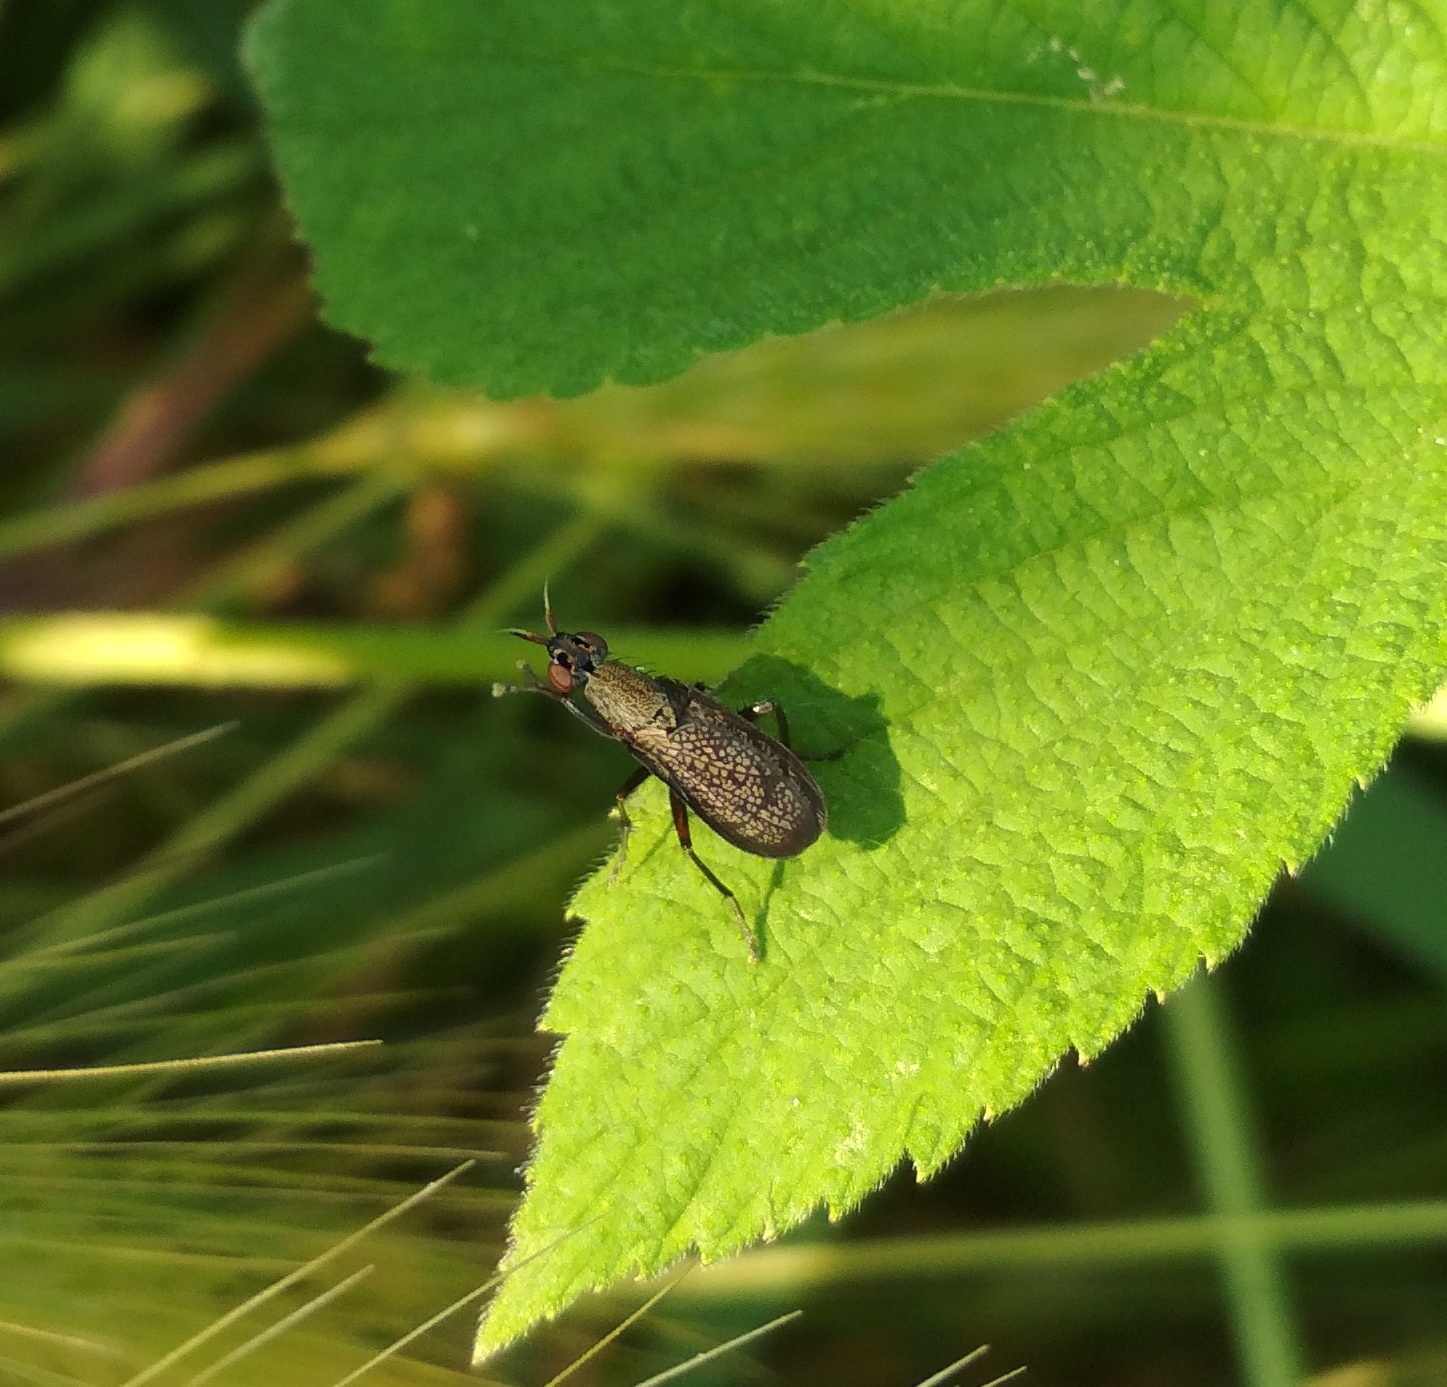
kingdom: Animalia
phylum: Arthropoda
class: Insecta
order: Diptera
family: Sciomyzidae
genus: Coremacera
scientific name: Coremacera marginata
